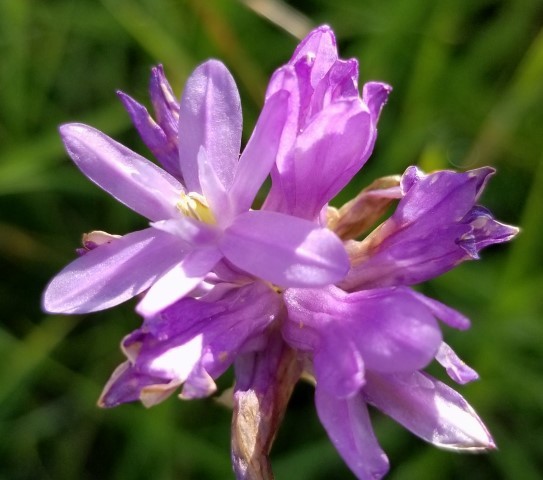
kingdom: Plantae
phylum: Tracheophyta
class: Liliopsida
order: Asparagales
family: Asparagaceae
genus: Dichelostemma
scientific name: Dichelostemma congestum
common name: Fork-tooth ookow
